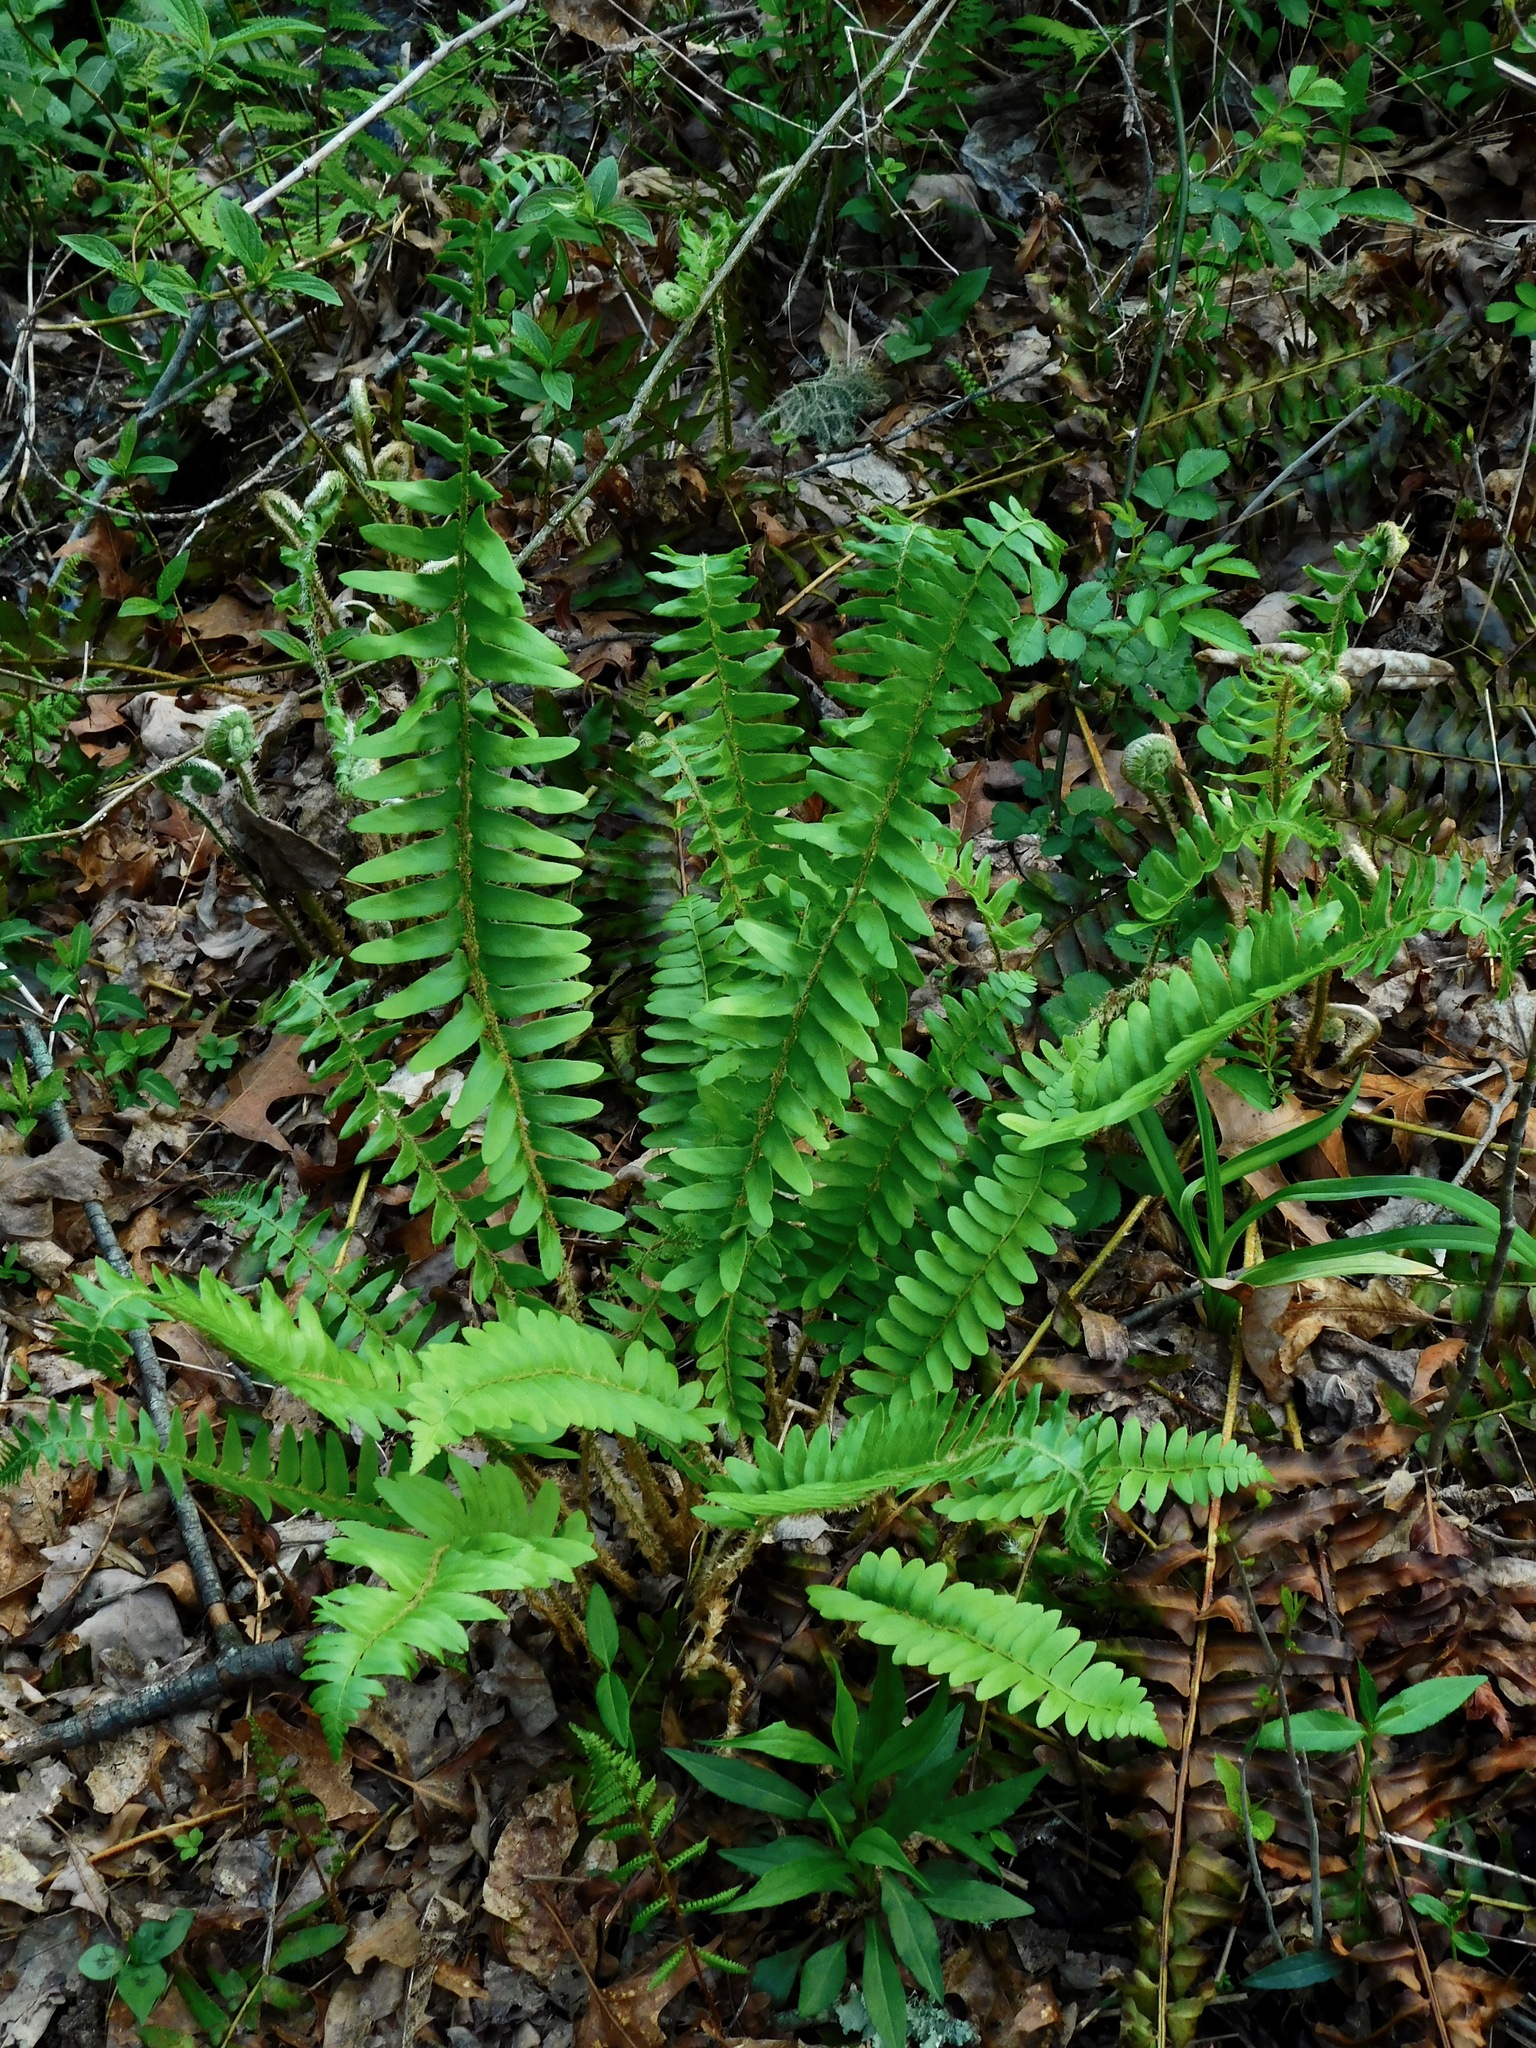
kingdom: Plantae
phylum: Tracheophyta
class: Polypodiopsida
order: Polypodiales
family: Dryopteridaceae
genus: Polystichum
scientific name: Polystichum acrostichoides
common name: Christmas fern
